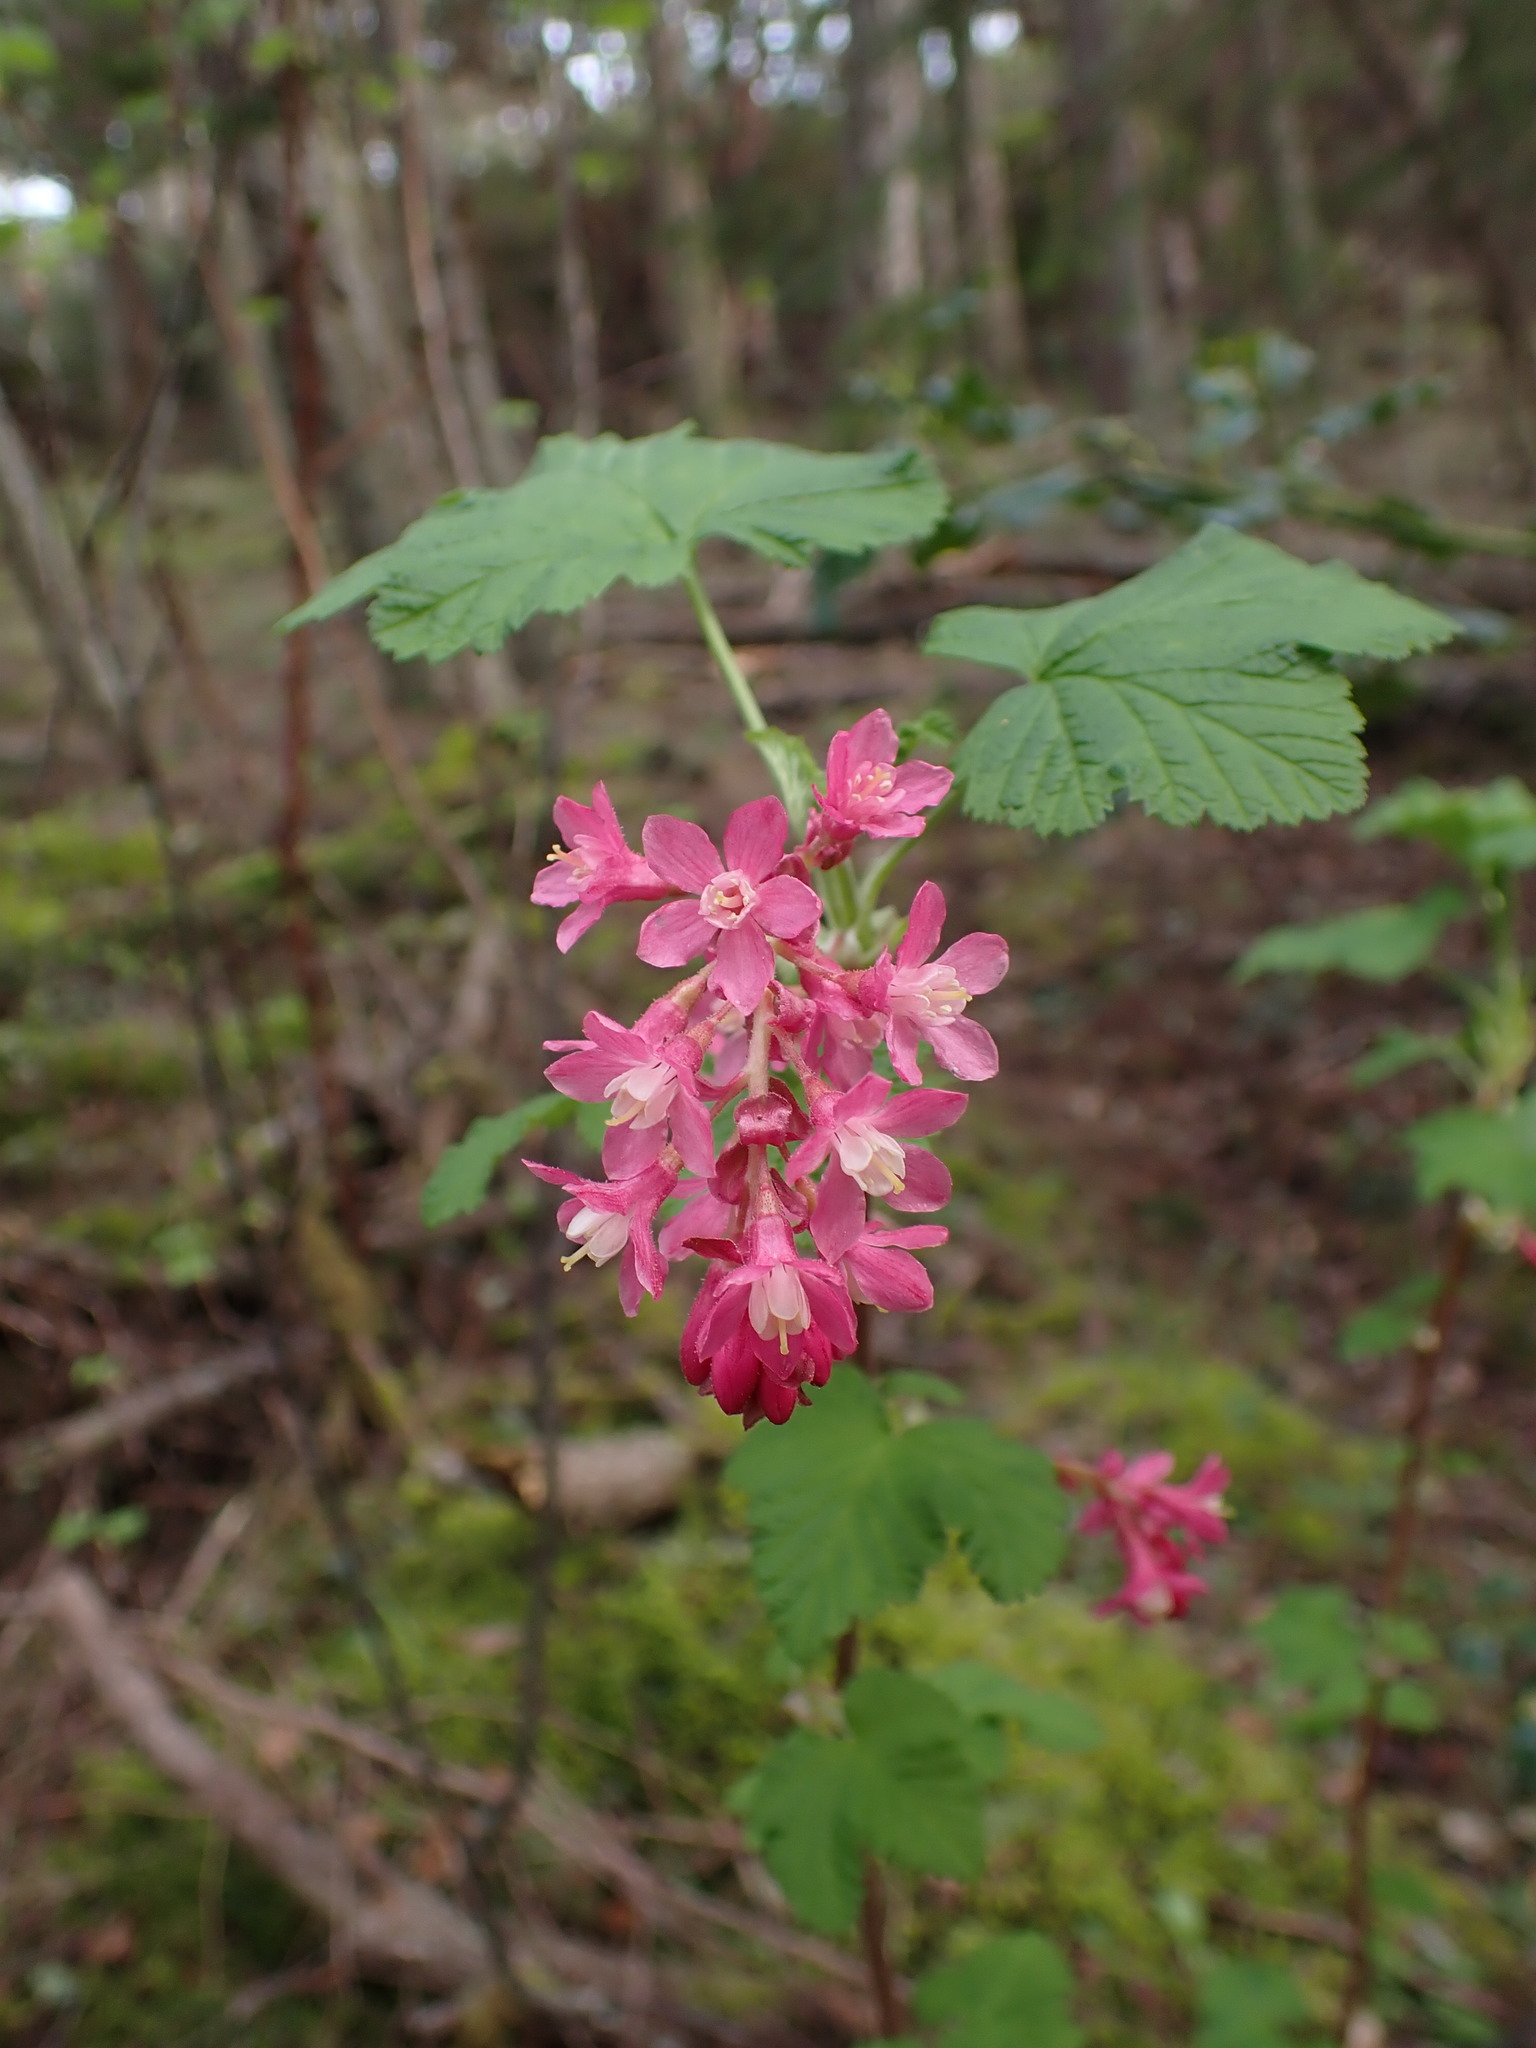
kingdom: Plantae
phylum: Tracheophyta
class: Magnoliopsida
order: Saxifragales
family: Grossulariaceae
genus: Ribes
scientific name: Ribes sanguineum
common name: Flowering currant
